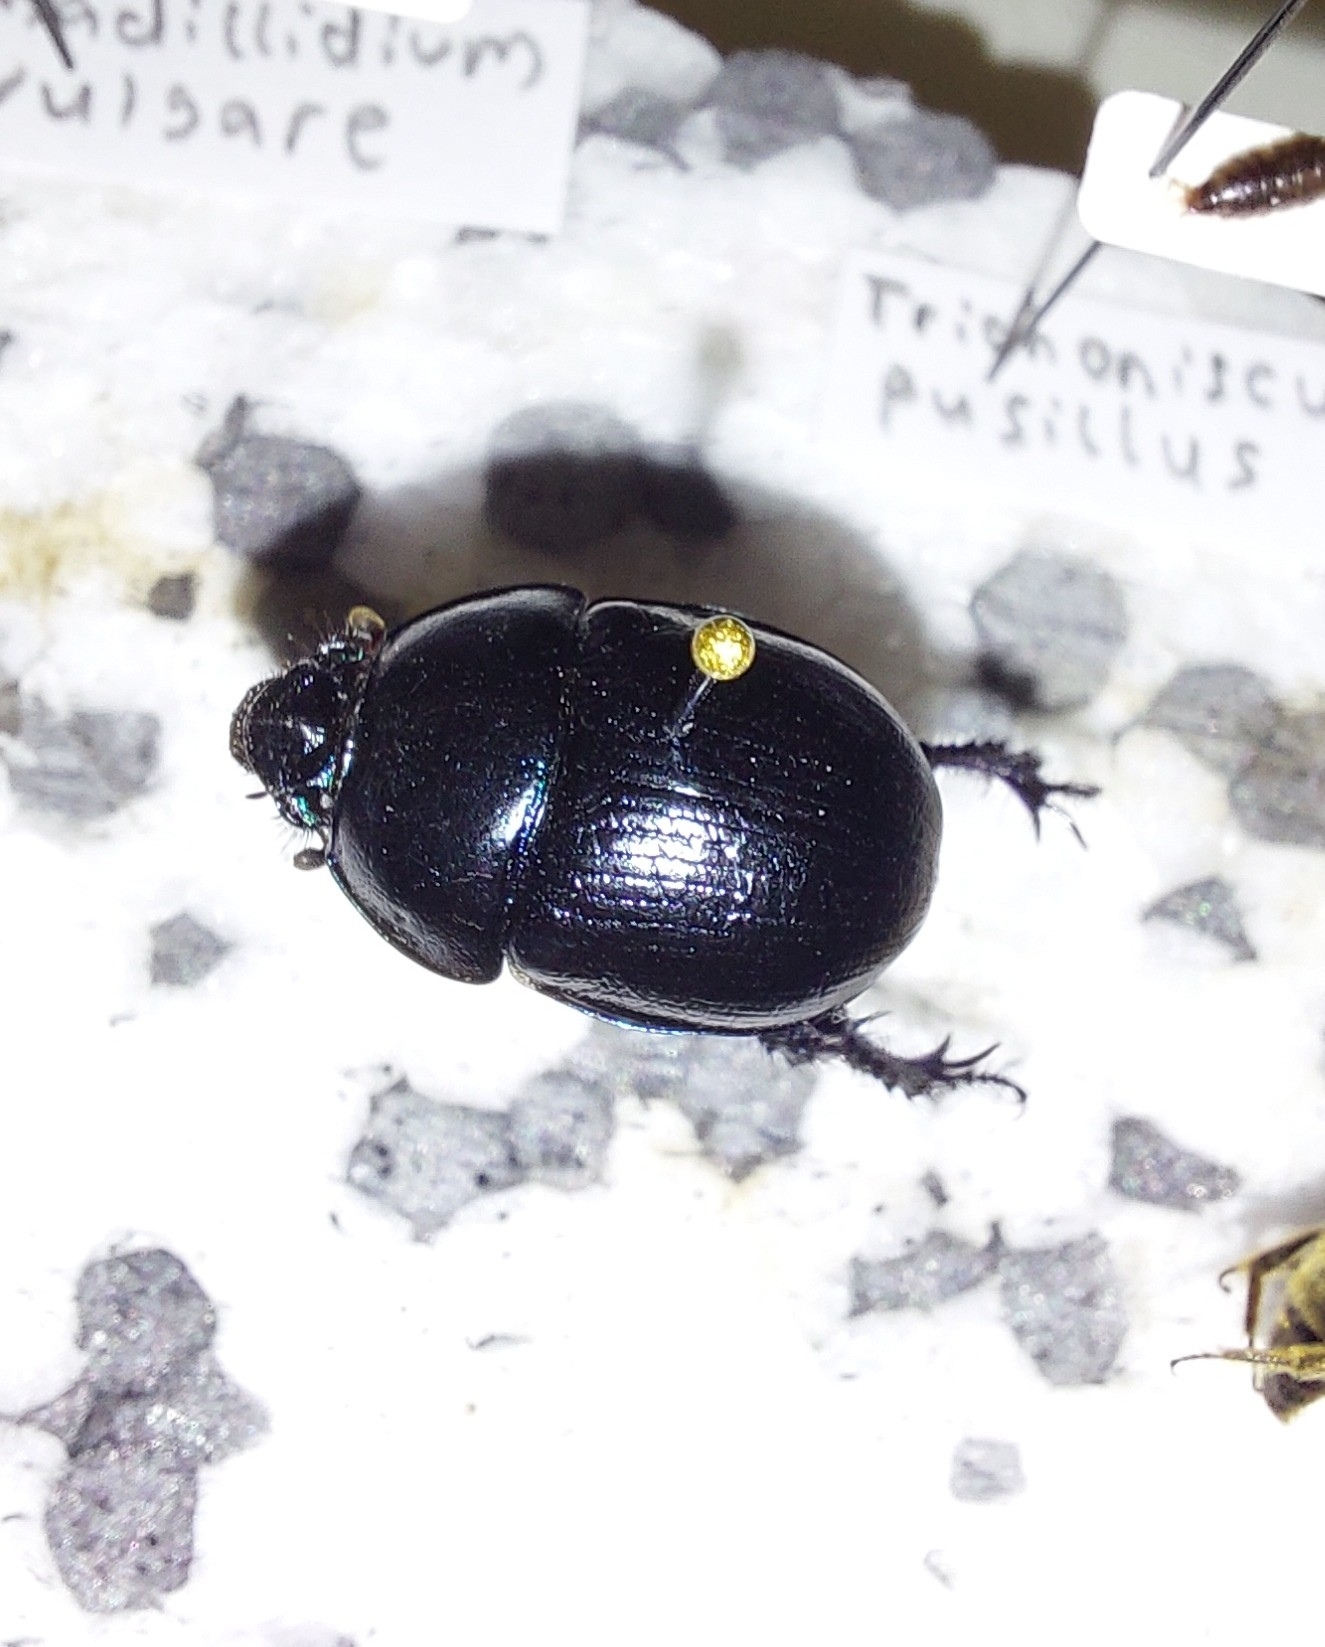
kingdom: Animalia
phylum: Arthropoda
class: Insecta
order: Coleoptera
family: Geotrupidae
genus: Anoplotrupes
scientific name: Anoplotrupes stercorosus
